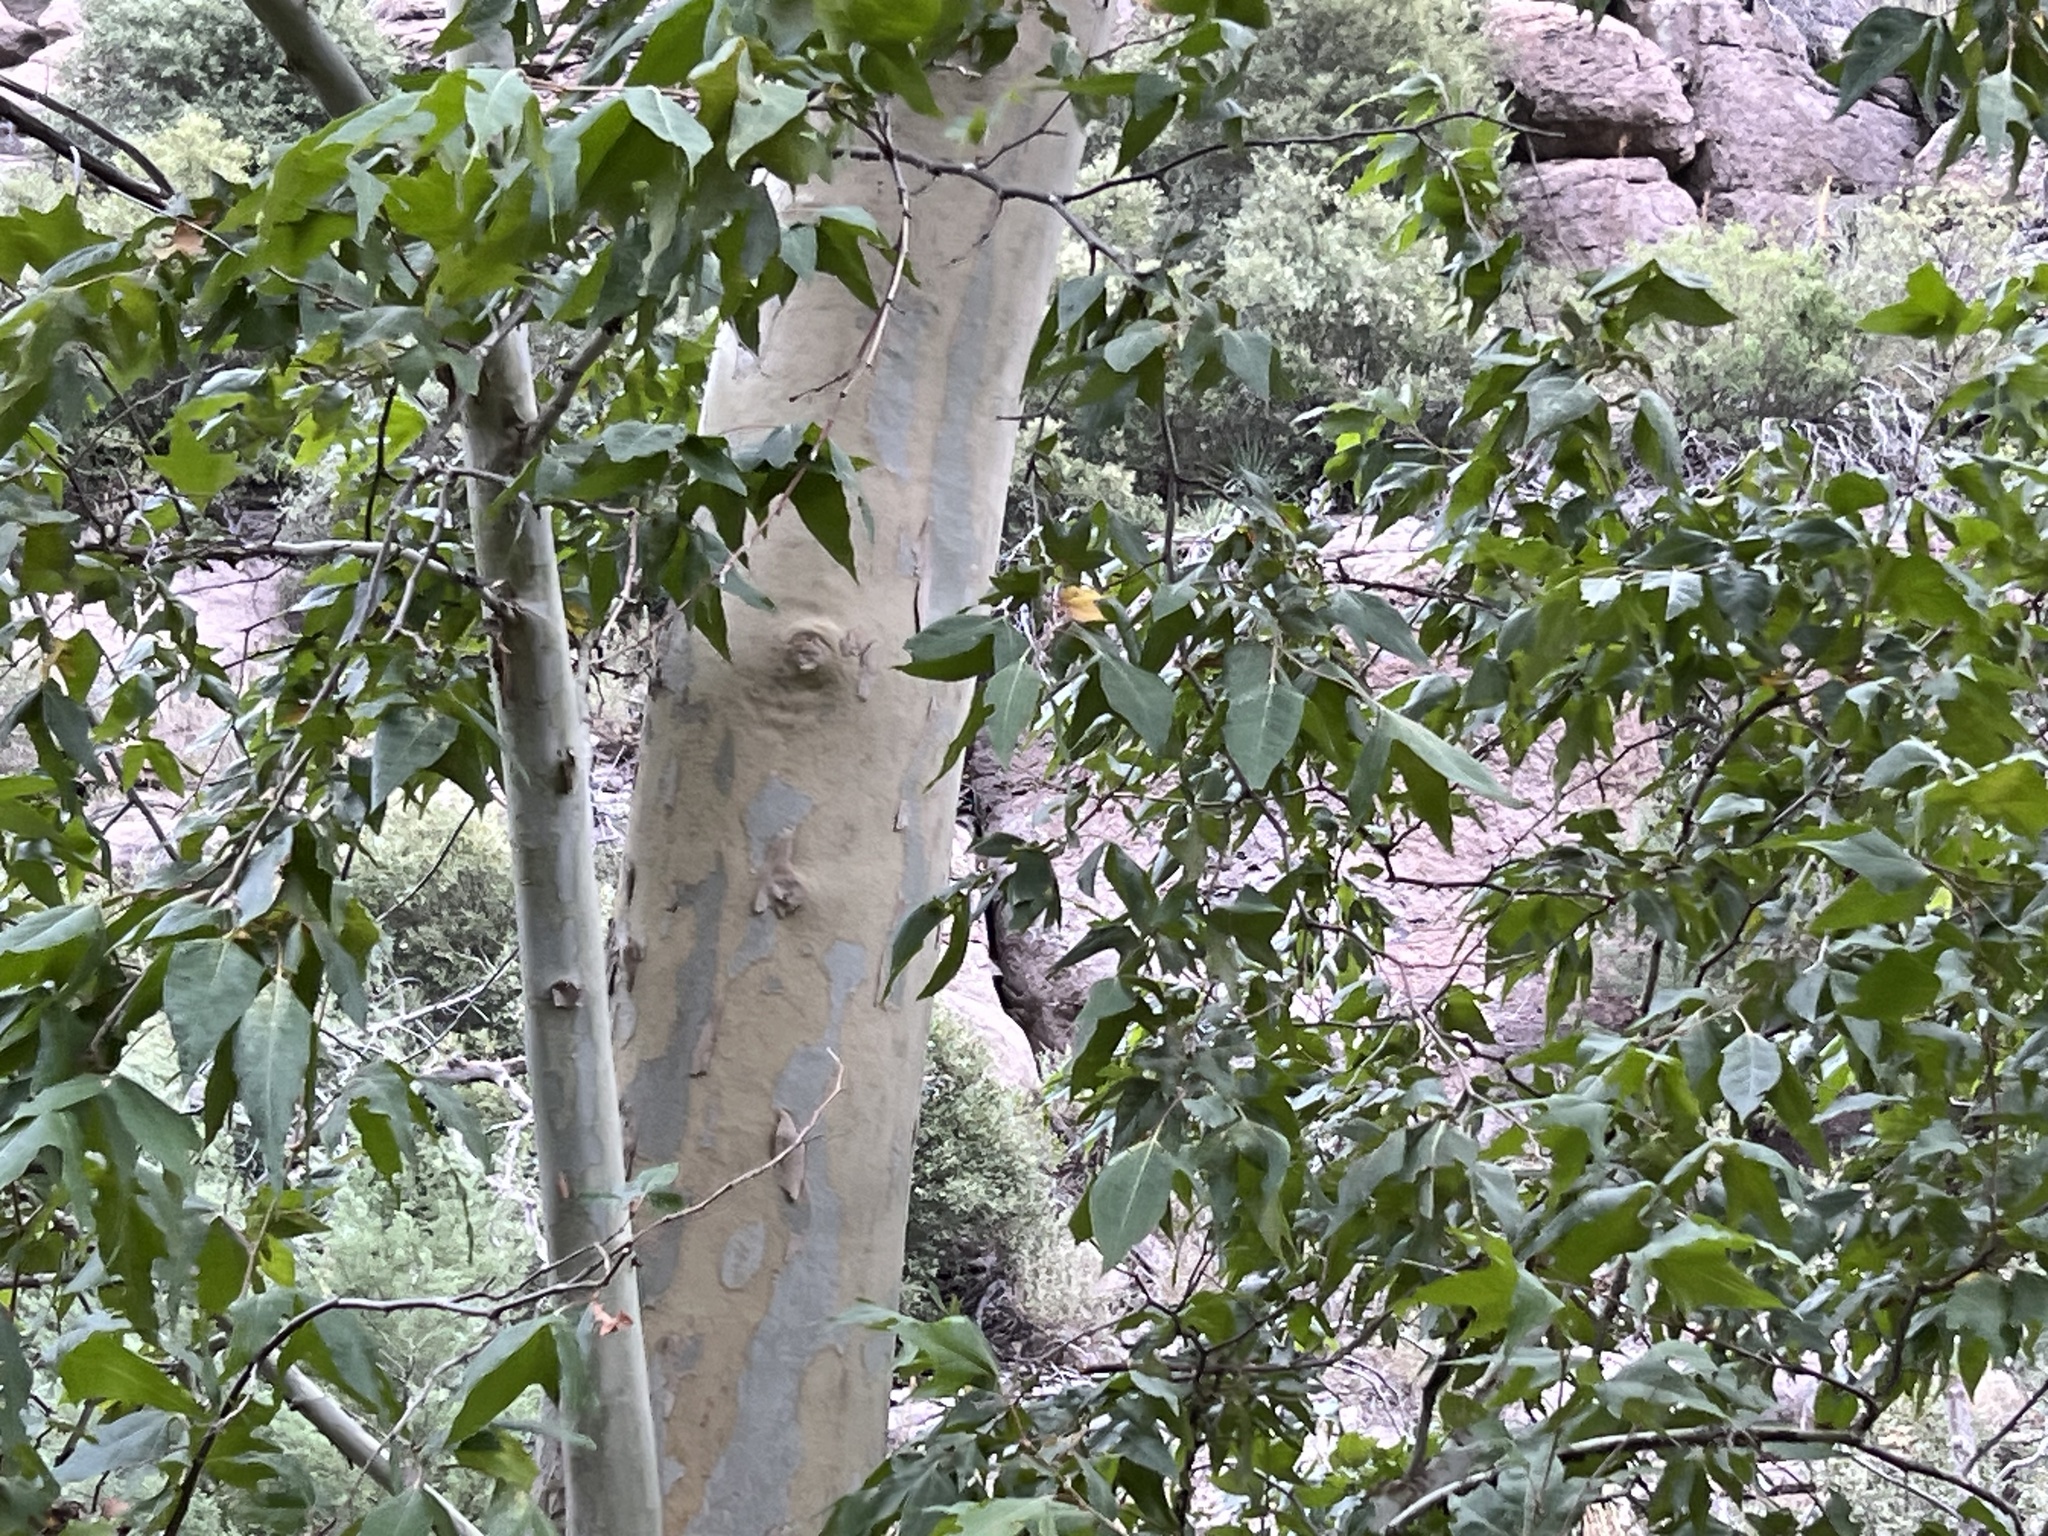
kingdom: Plantae
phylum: Tracheophyta
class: Magnoliopsida
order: Proteales
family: Platanaceae
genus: Platanus
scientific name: Platanus wrightii
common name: Arizona sycamore
